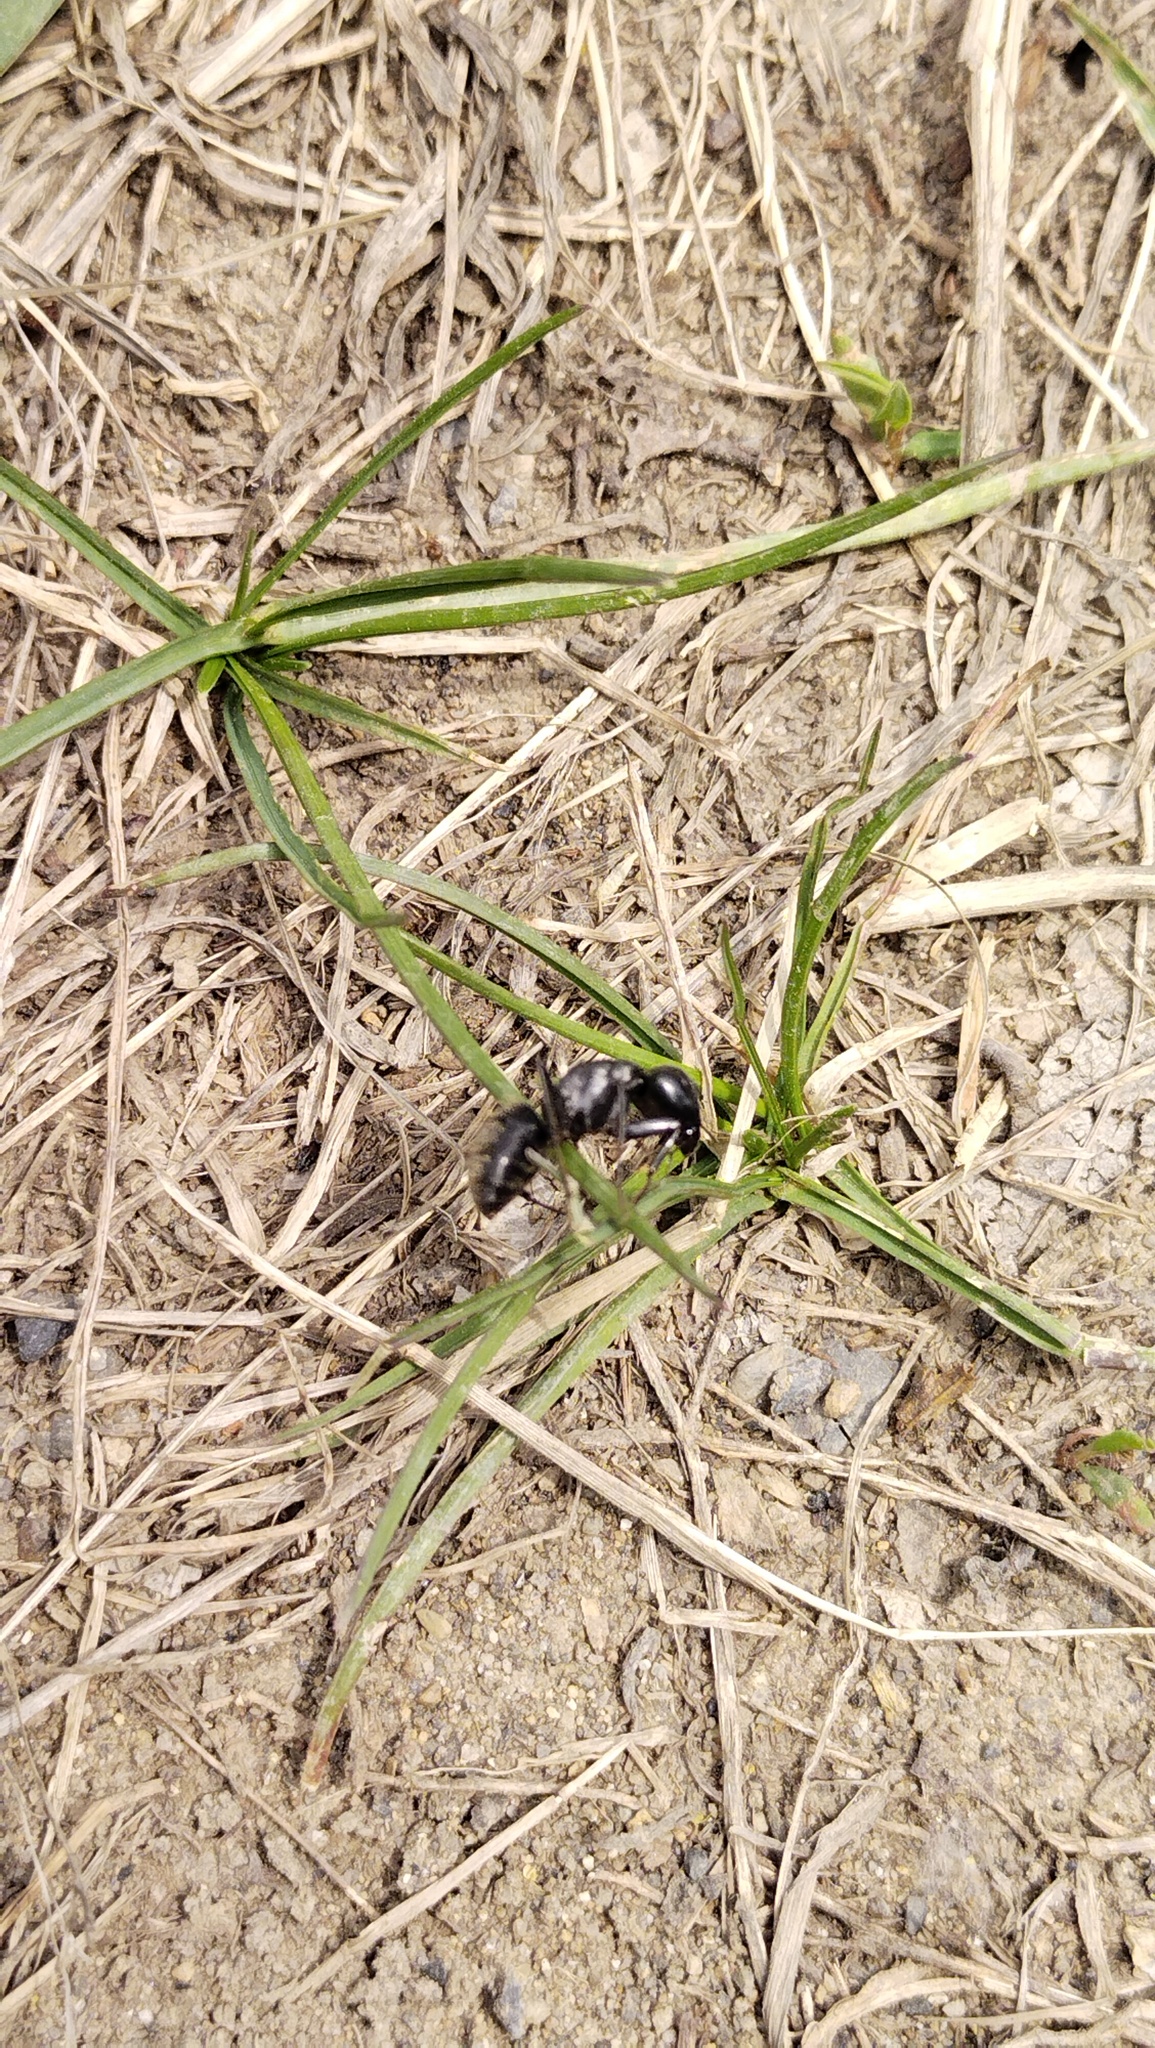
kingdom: Animalia
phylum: Arthropoda
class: Insecta
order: Hymenoptera
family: Formicidae
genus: Camponotus
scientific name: Camponotus japonicus
